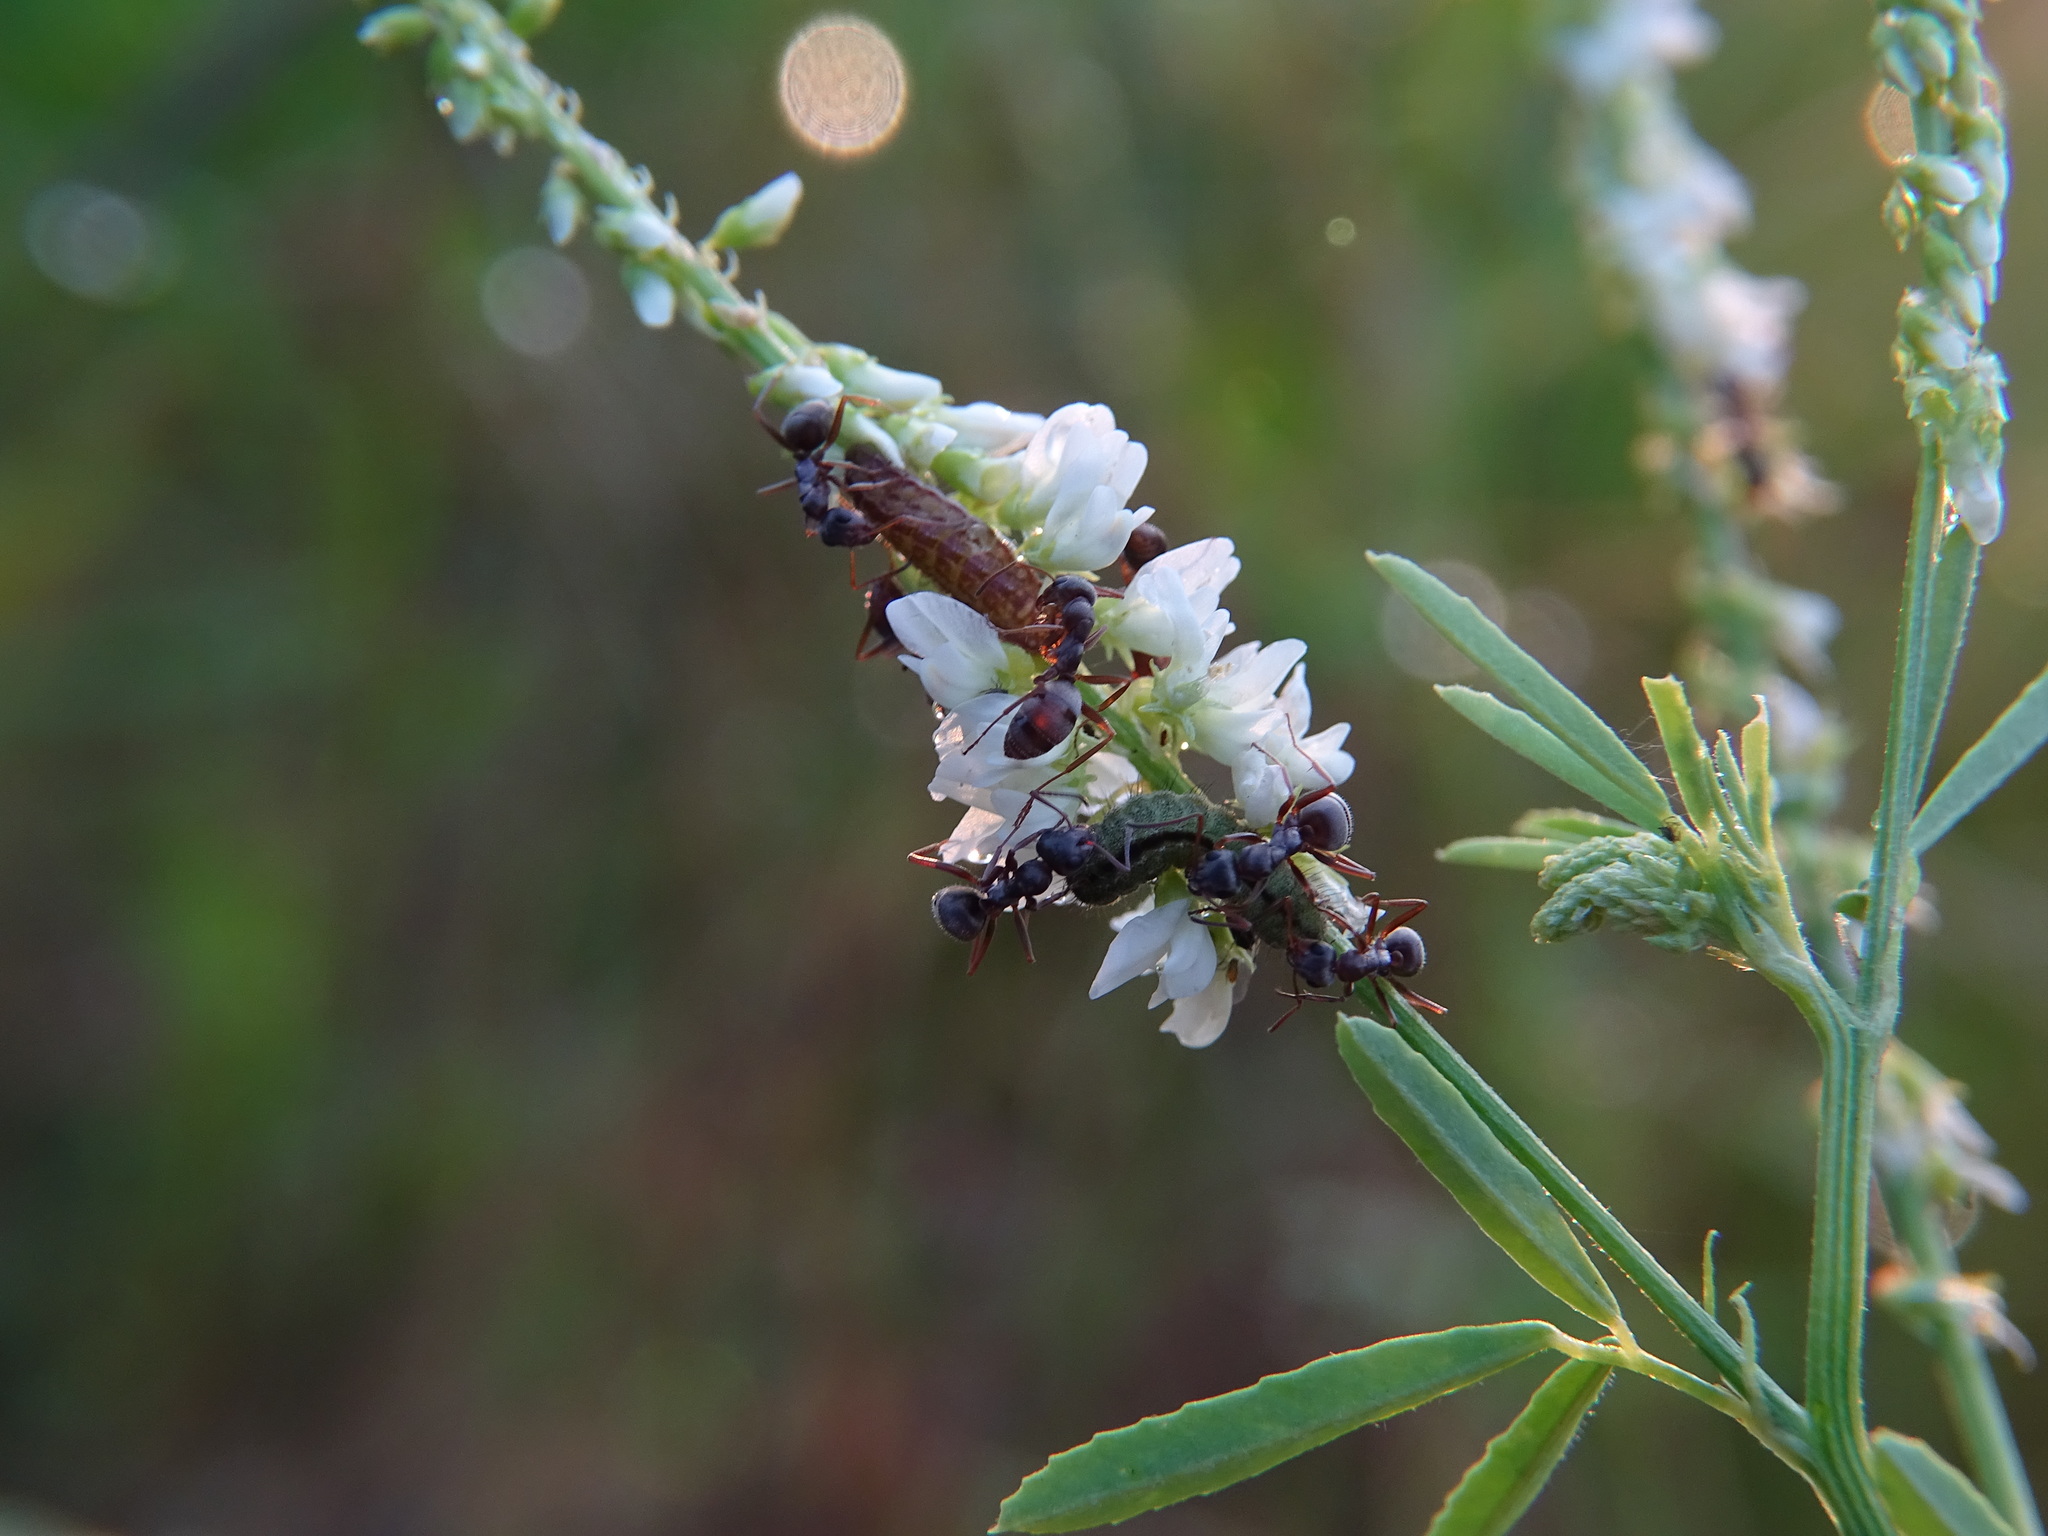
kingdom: Animalia
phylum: Arthropoda
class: Insecta
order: Lepidoptera
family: Lycaenidae
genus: Lycaeides
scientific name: Lycaeides idas
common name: Northern blue
